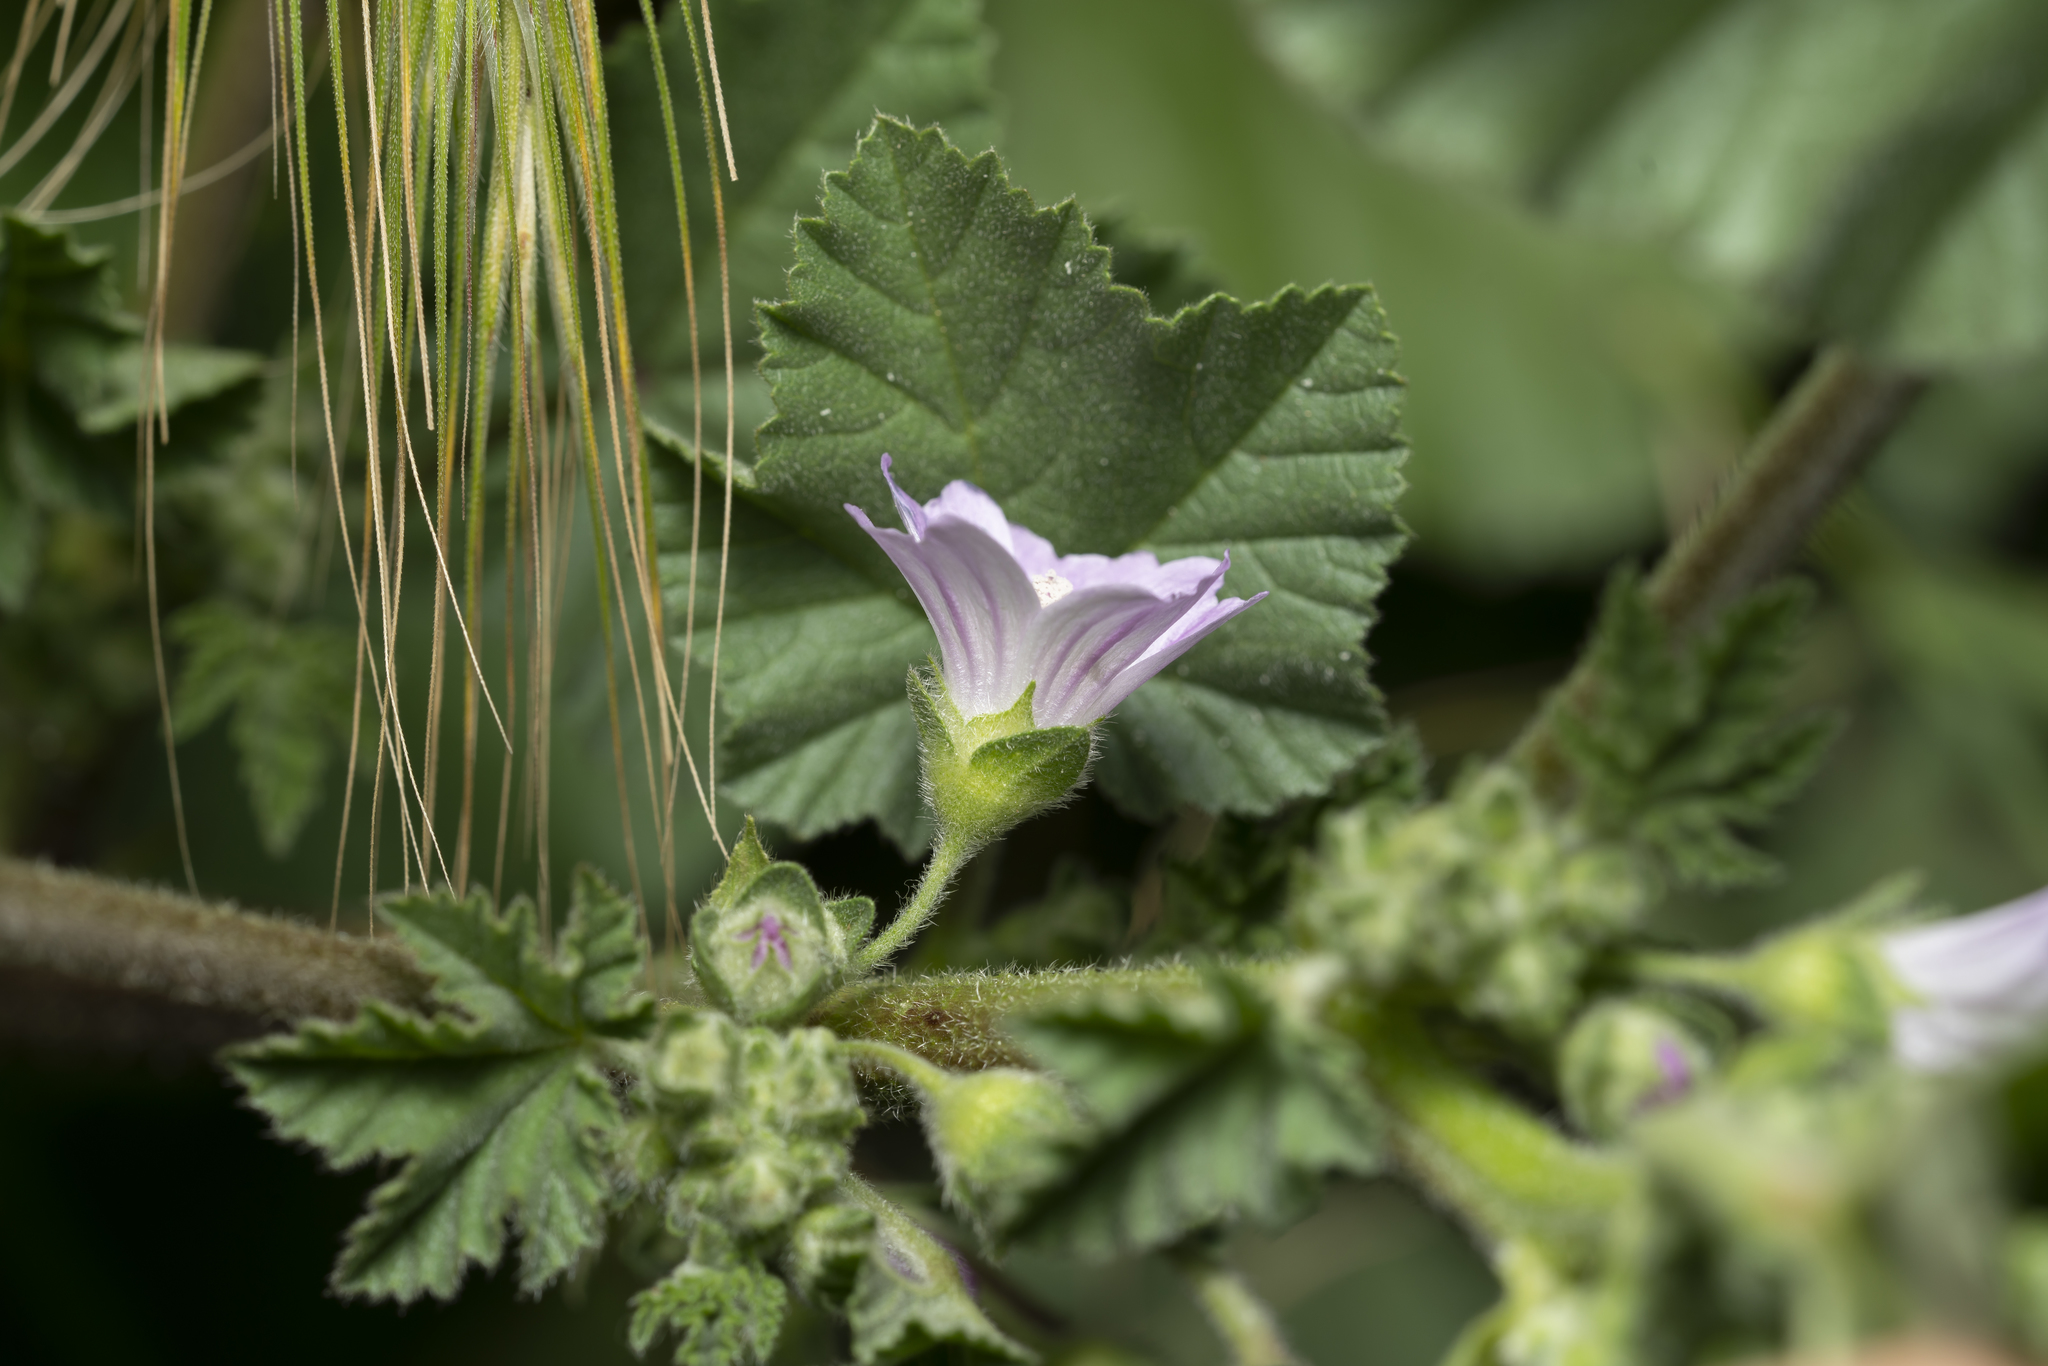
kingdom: Plantae
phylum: Tracheophyta
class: Magnoliopsida
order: Malvales
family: Malvaceae
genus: Malva
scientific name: Malva multiflora
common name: Cheeseweed
